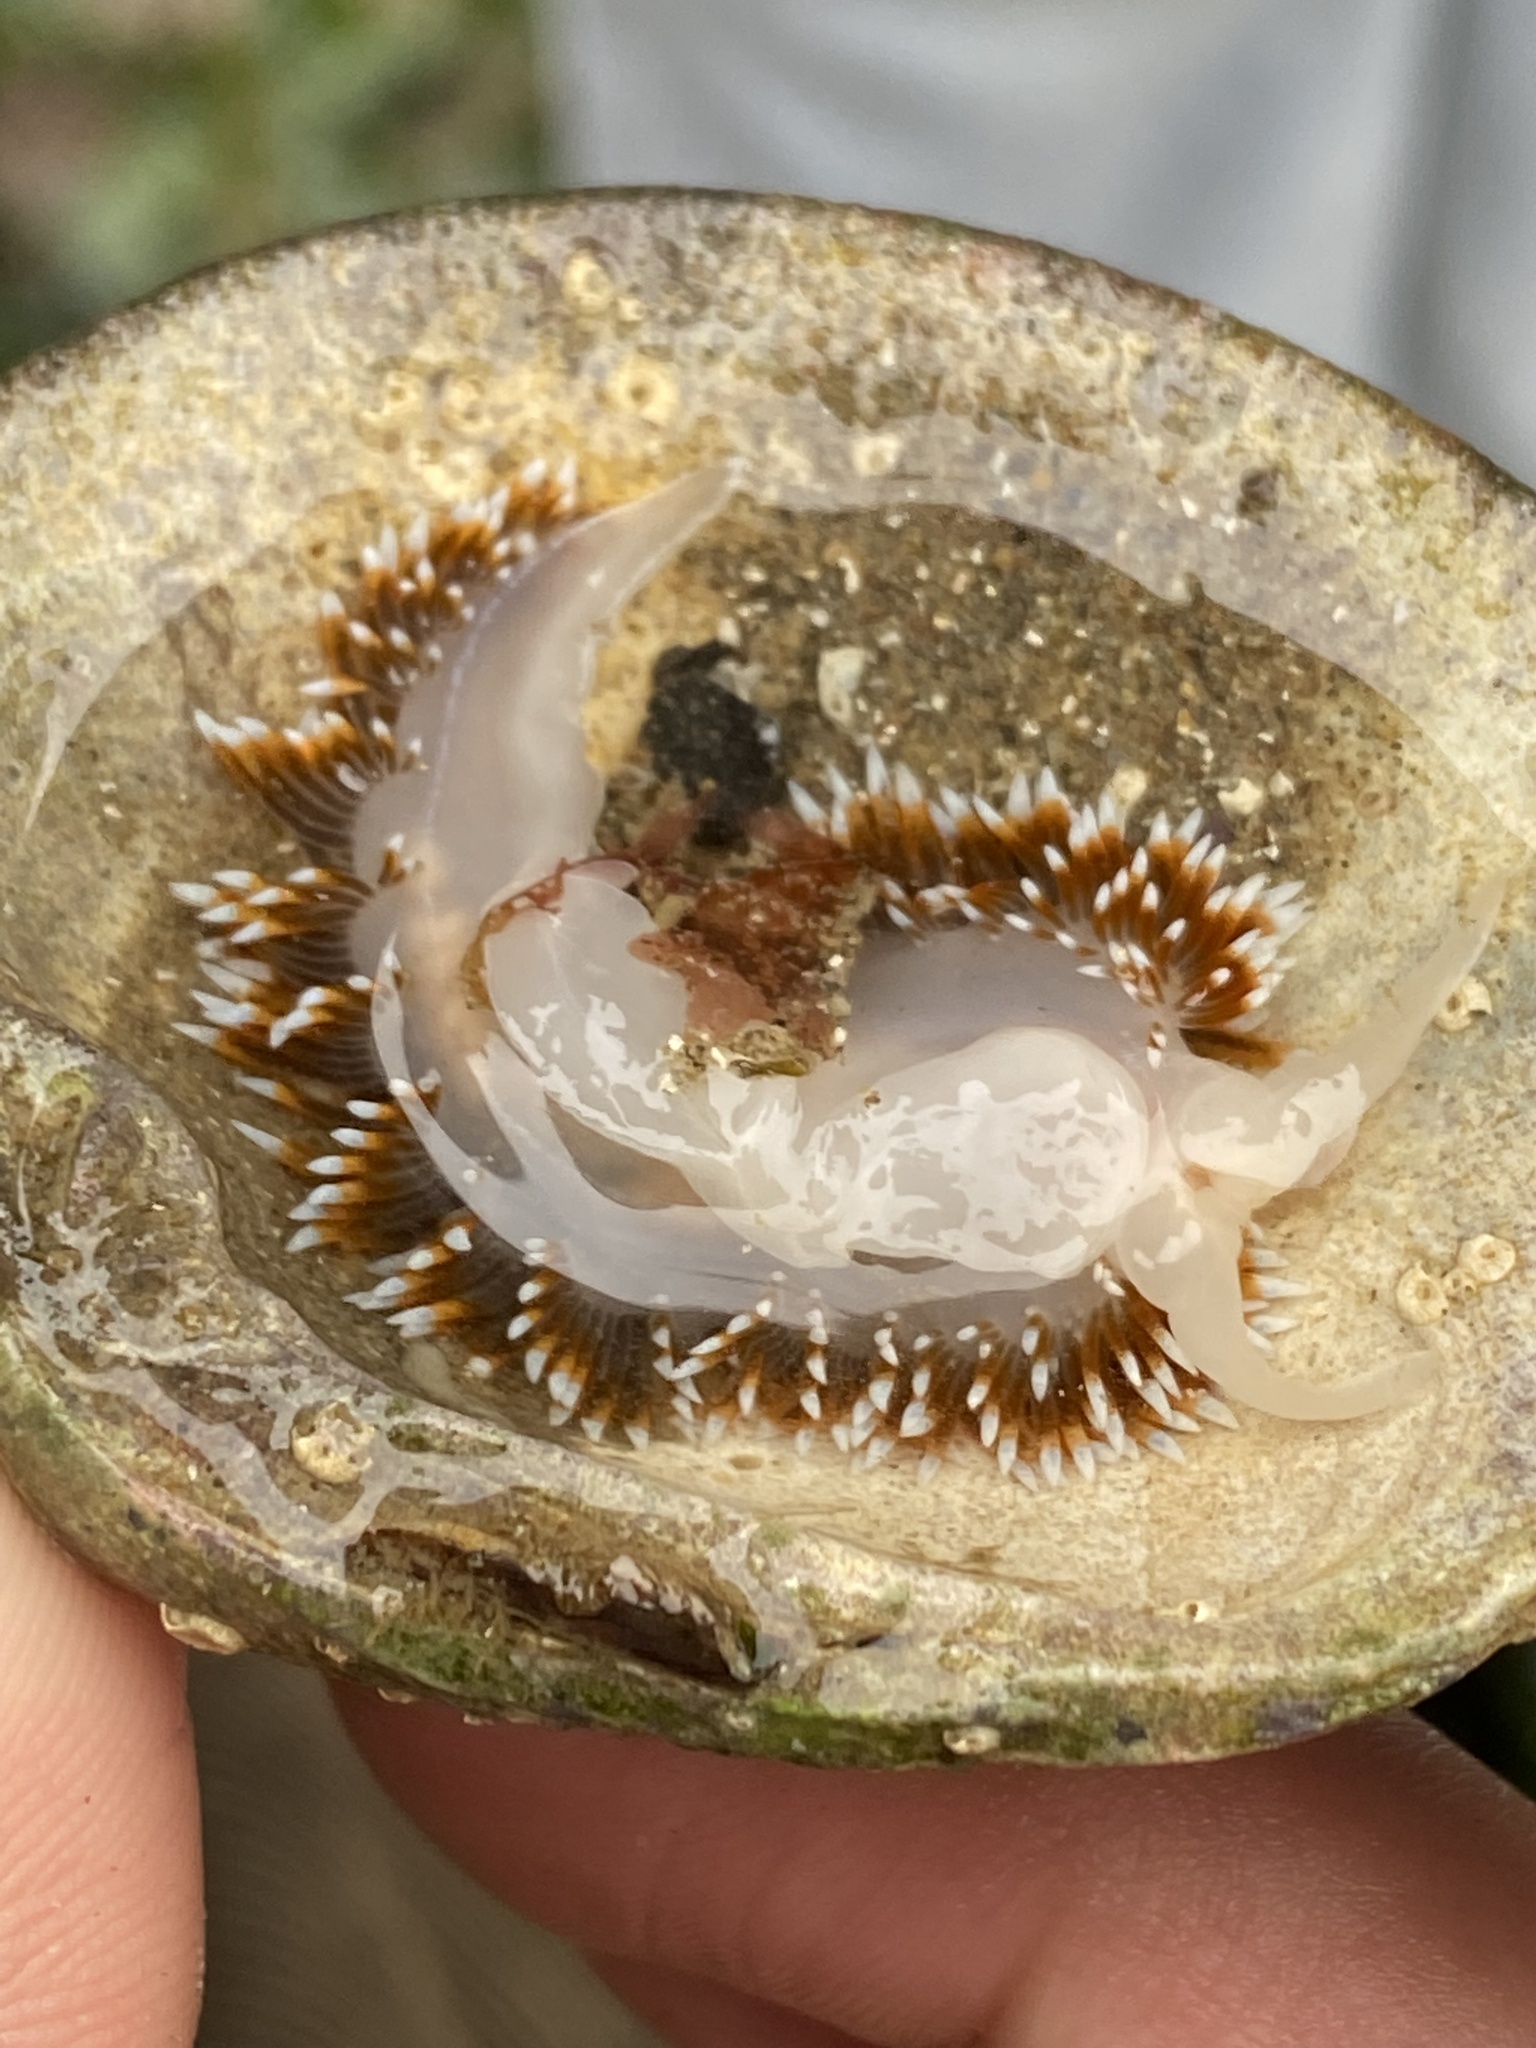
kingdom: Animalia
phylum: Mollusca
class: Gastropoda
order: Nudibranchia
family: Facelinidae
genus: Phidiana
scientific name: Phidiana lottini
